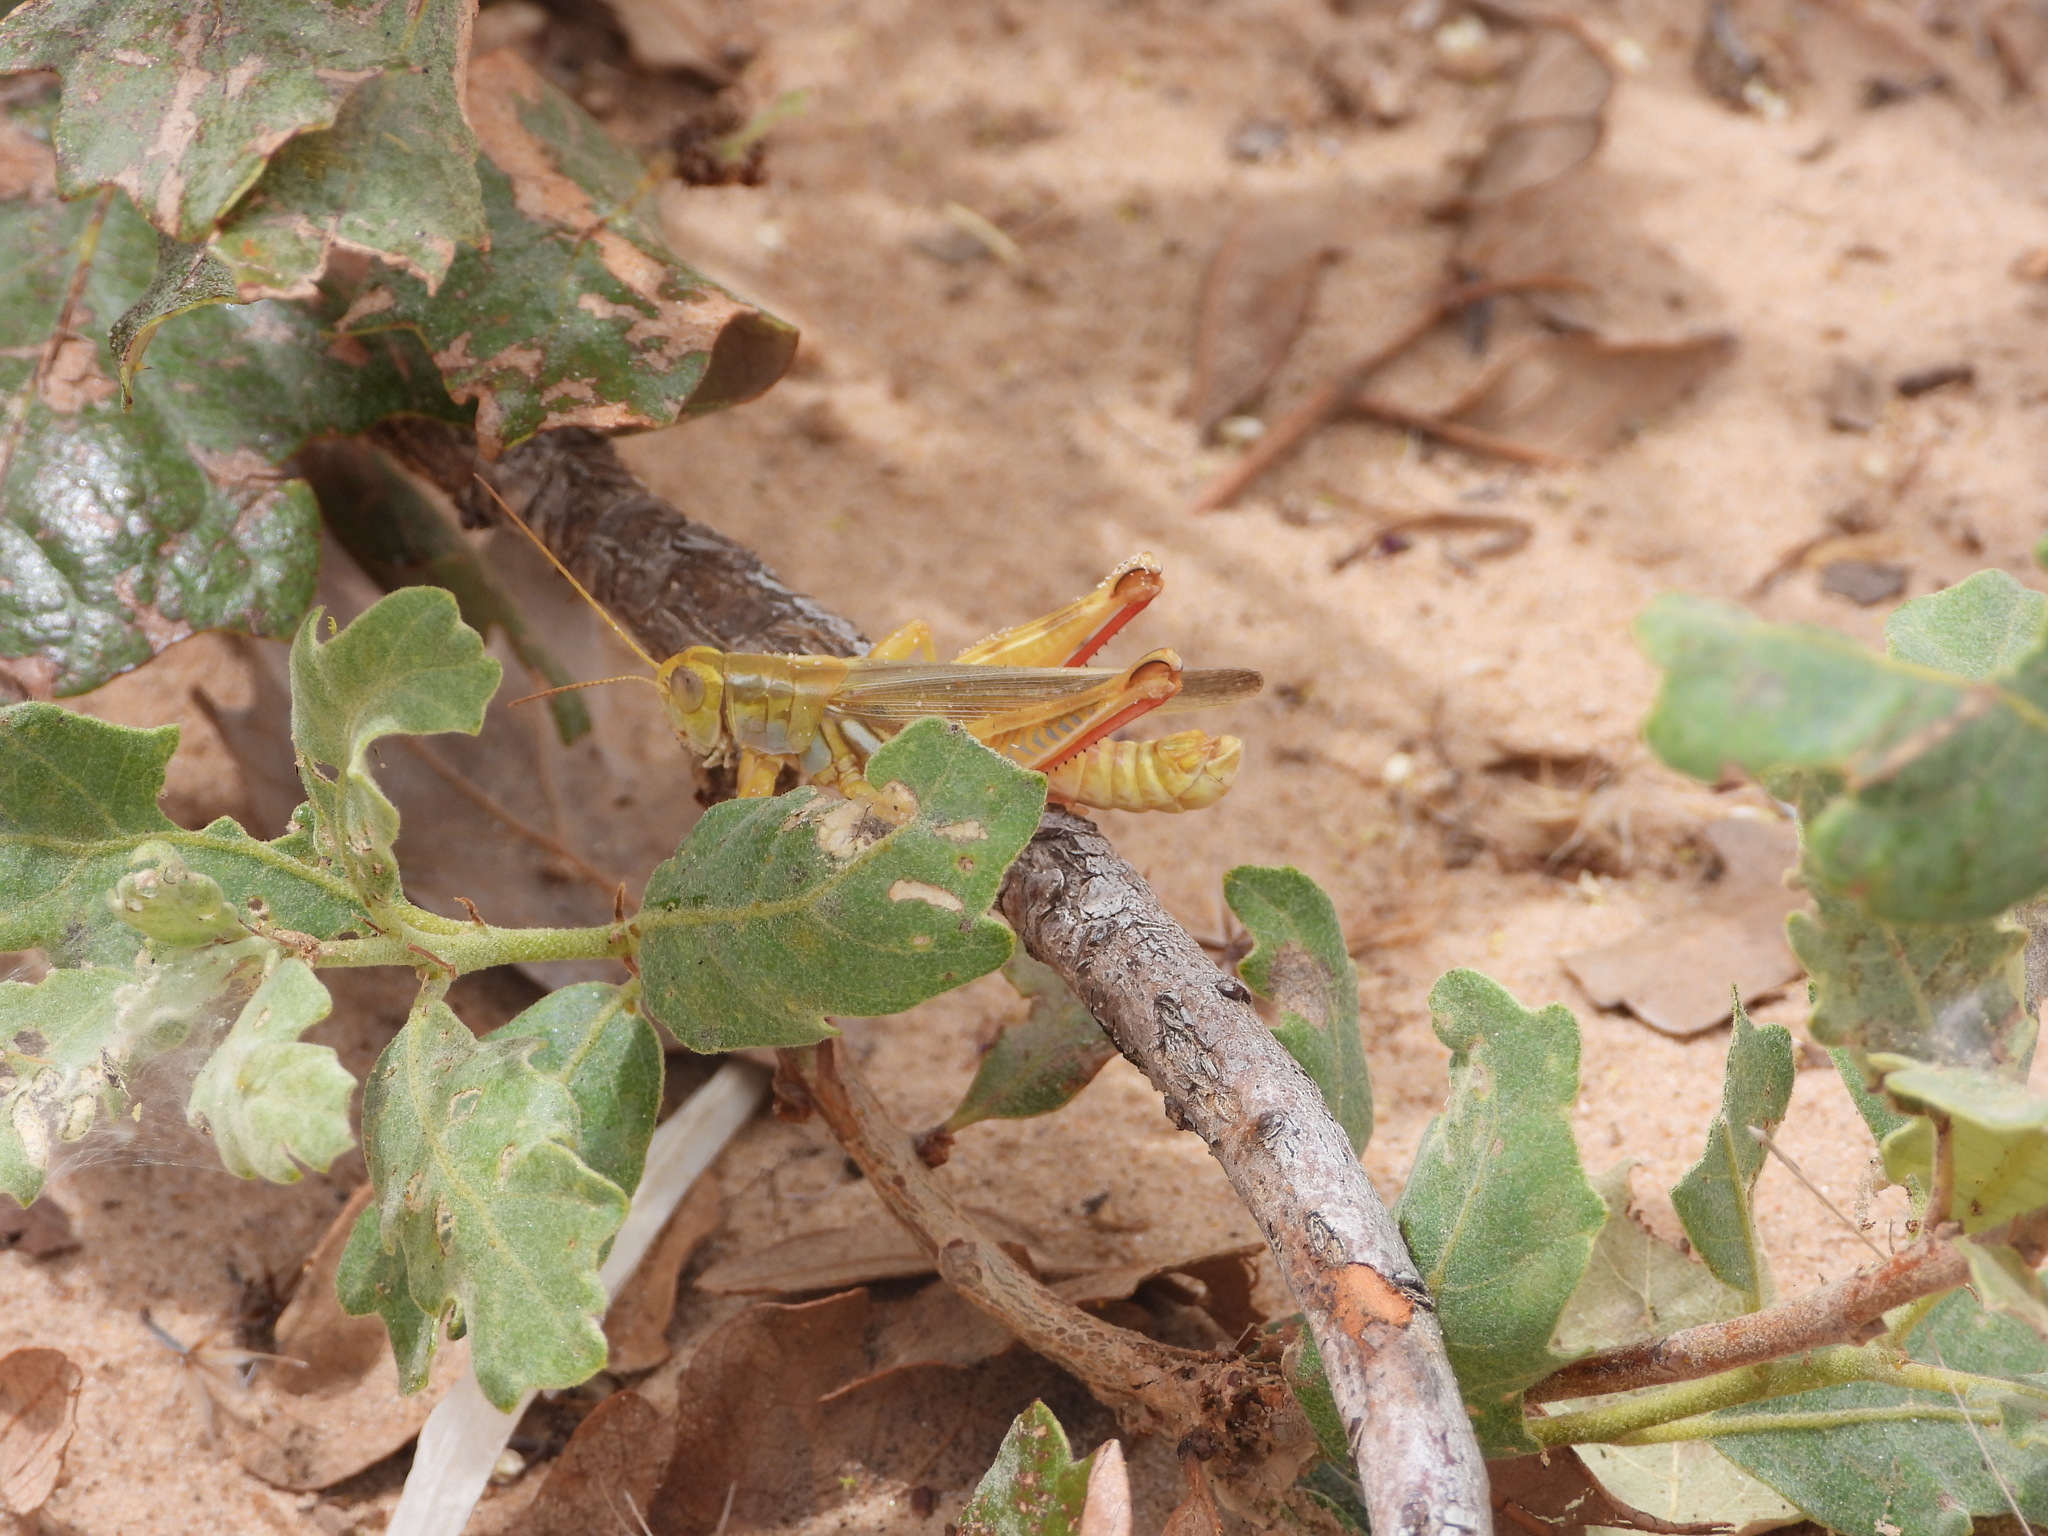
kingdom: Animalia
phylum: Arthropoda
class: Insecta
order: Orthoptera
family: Acrididae
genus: Melanoplus
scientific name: Melanoplus foedus
